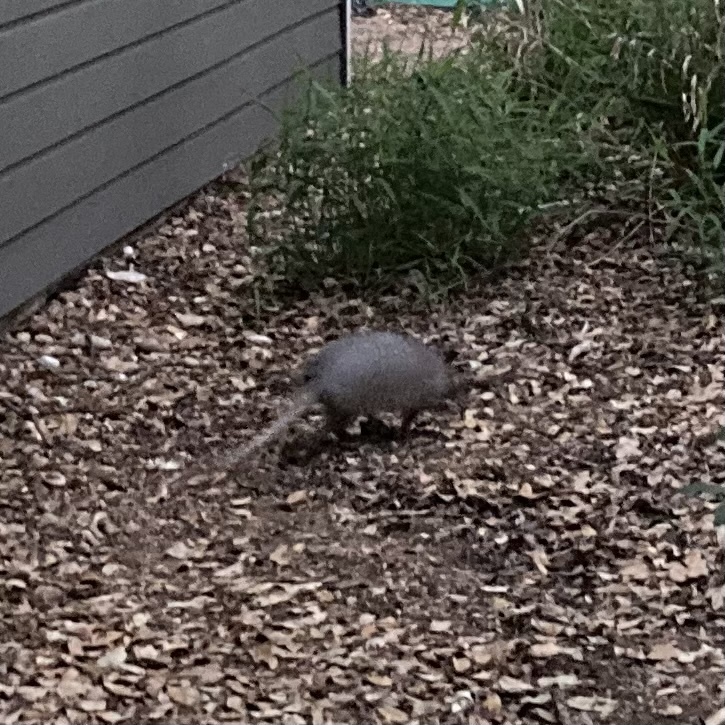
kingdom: Animalia
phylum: Chordata
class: Mammalia
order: Cingulata
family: Dasypodidae
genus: Dasypus
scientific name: Dasypus novemcinctus
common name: Nine-banded armadillo
